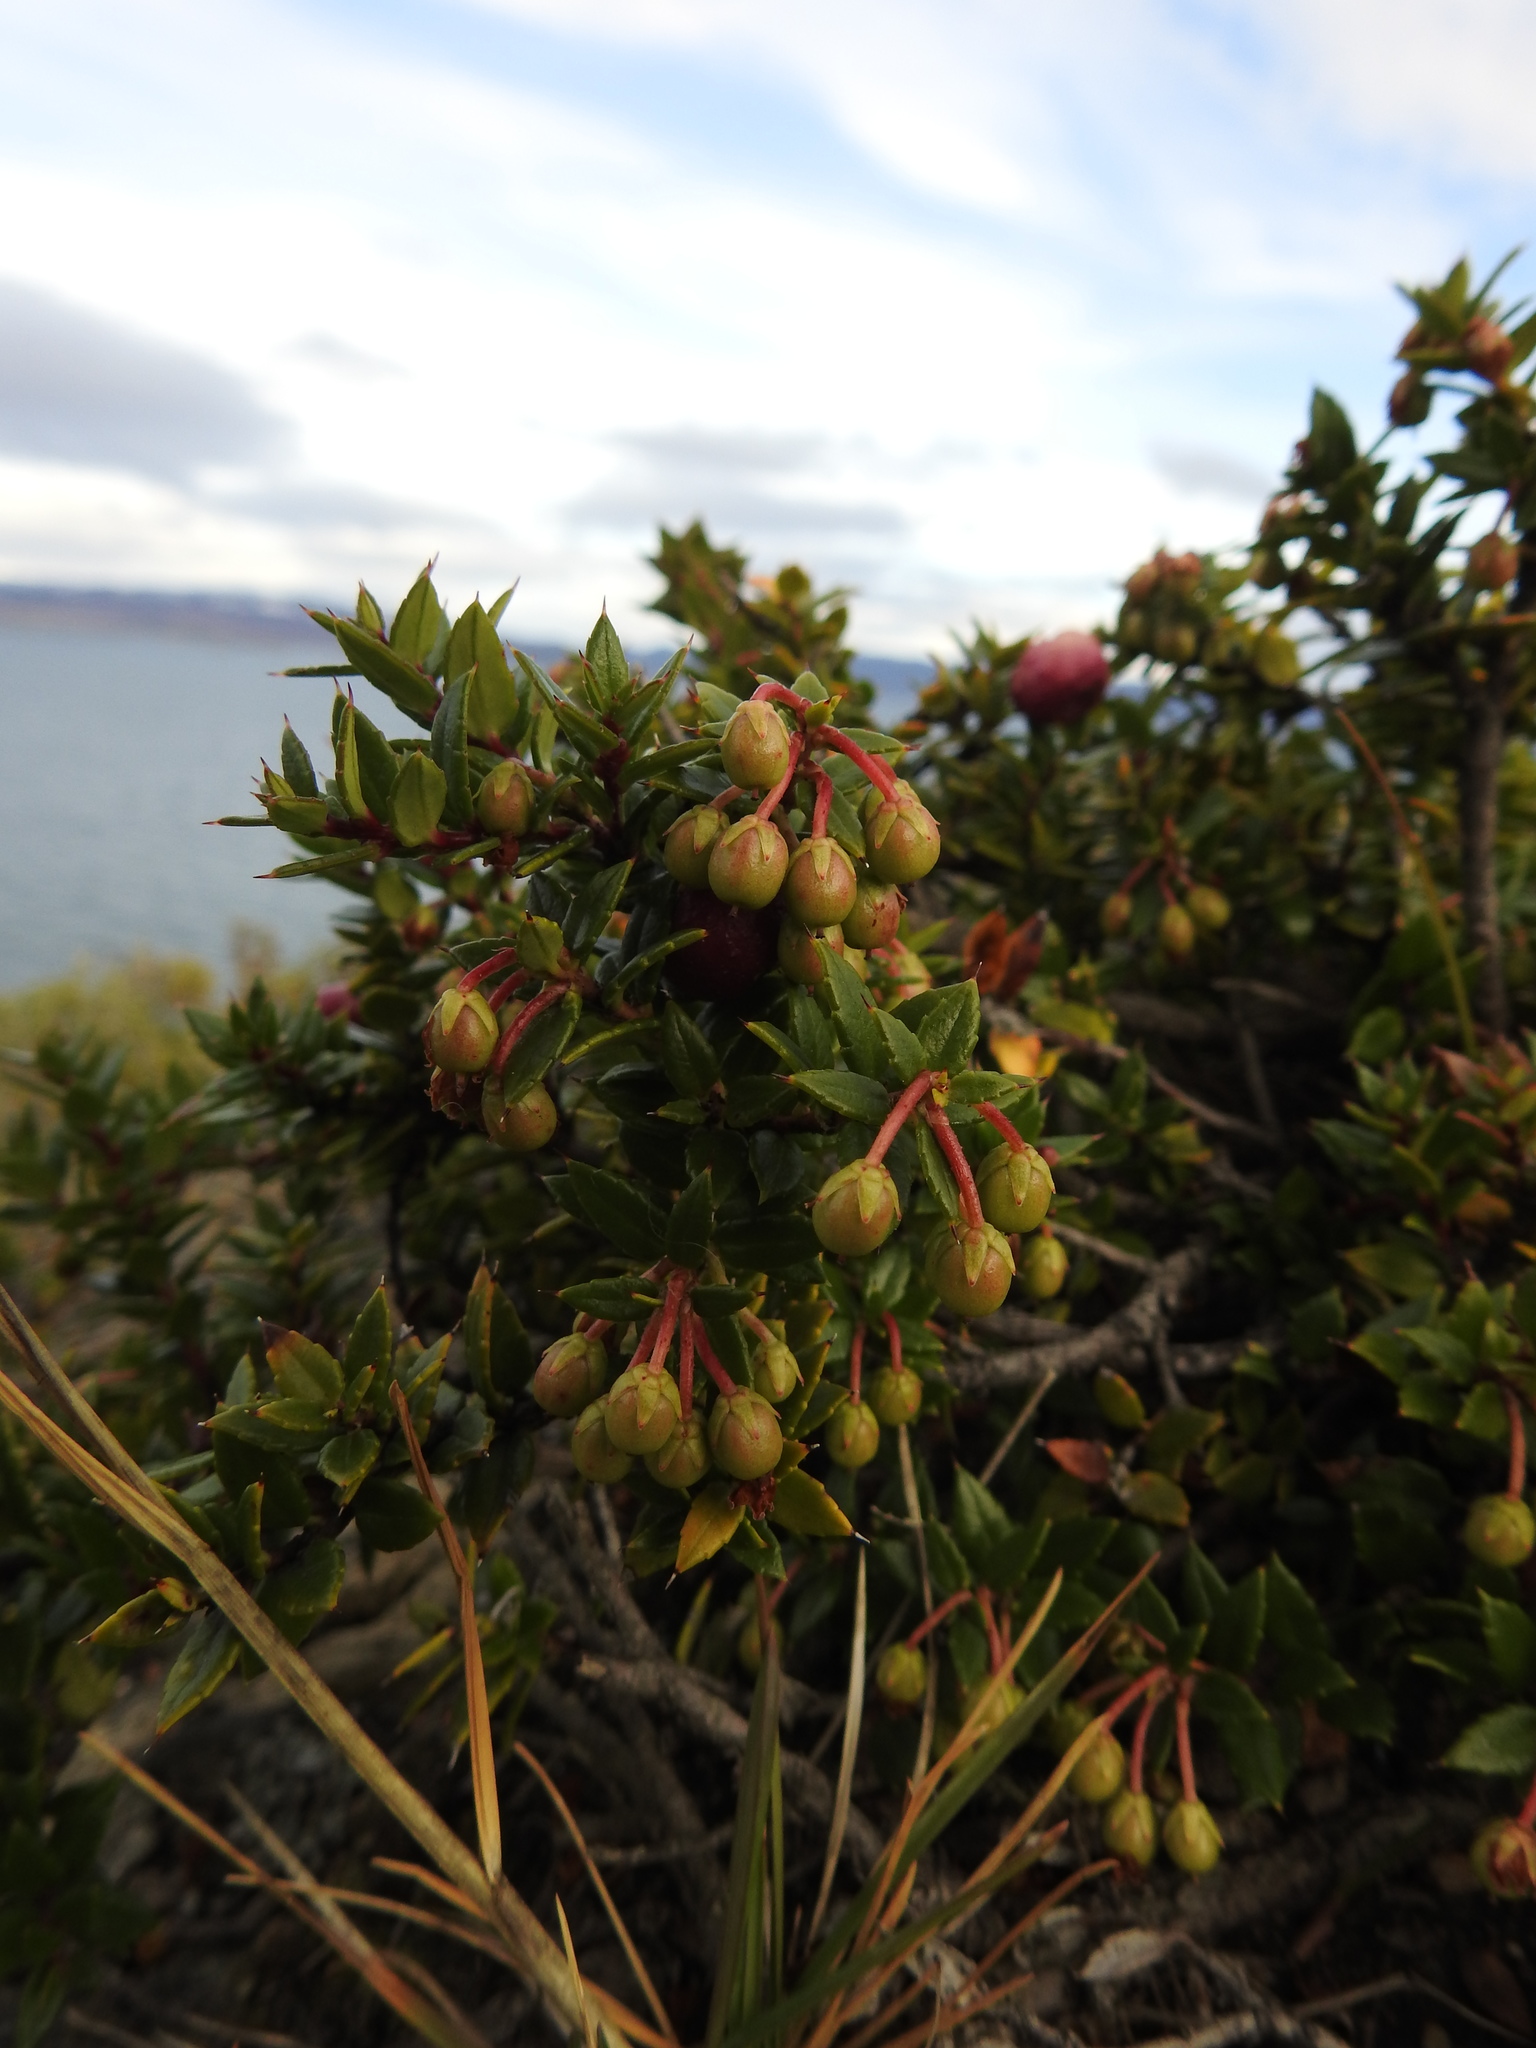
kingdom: Plantae
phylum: Tracheophyta
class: Magnoliopsida
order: Ericales
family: Ericaceae
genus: Gaultheria
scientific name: Gaultheria mucronata
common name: Prickly heath
